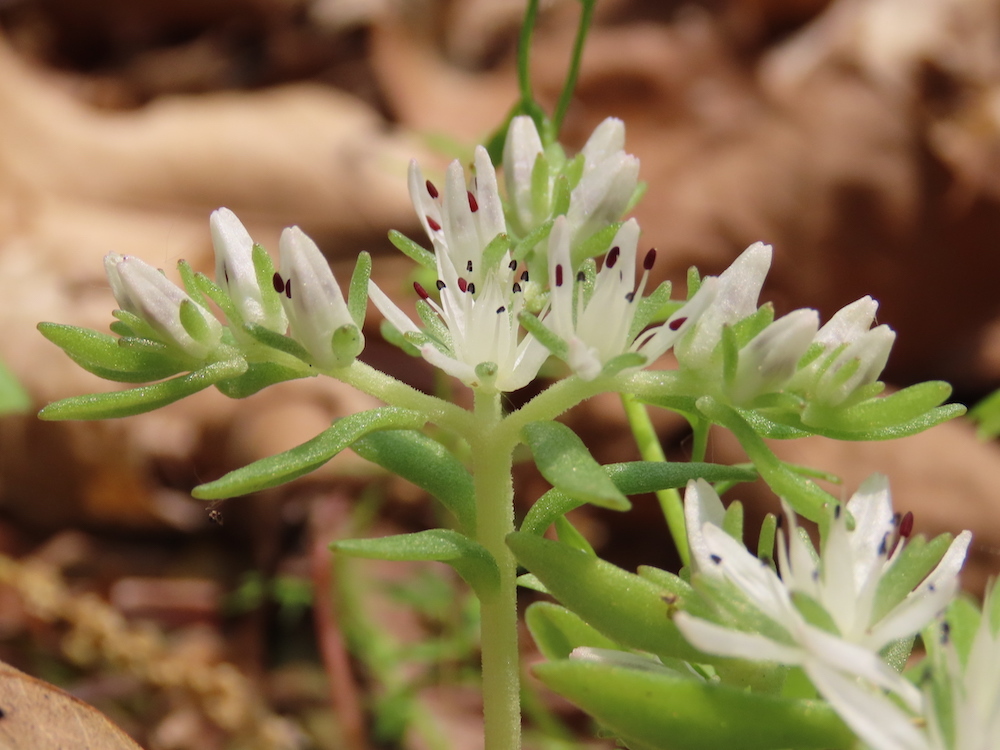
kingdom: Plantae
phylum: Tracheophyta
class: Magnoliopsida
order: Saxifragales
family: Crassulaceae
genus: Sedum
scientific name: Sedum ternatum
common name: Wild stonecrop
